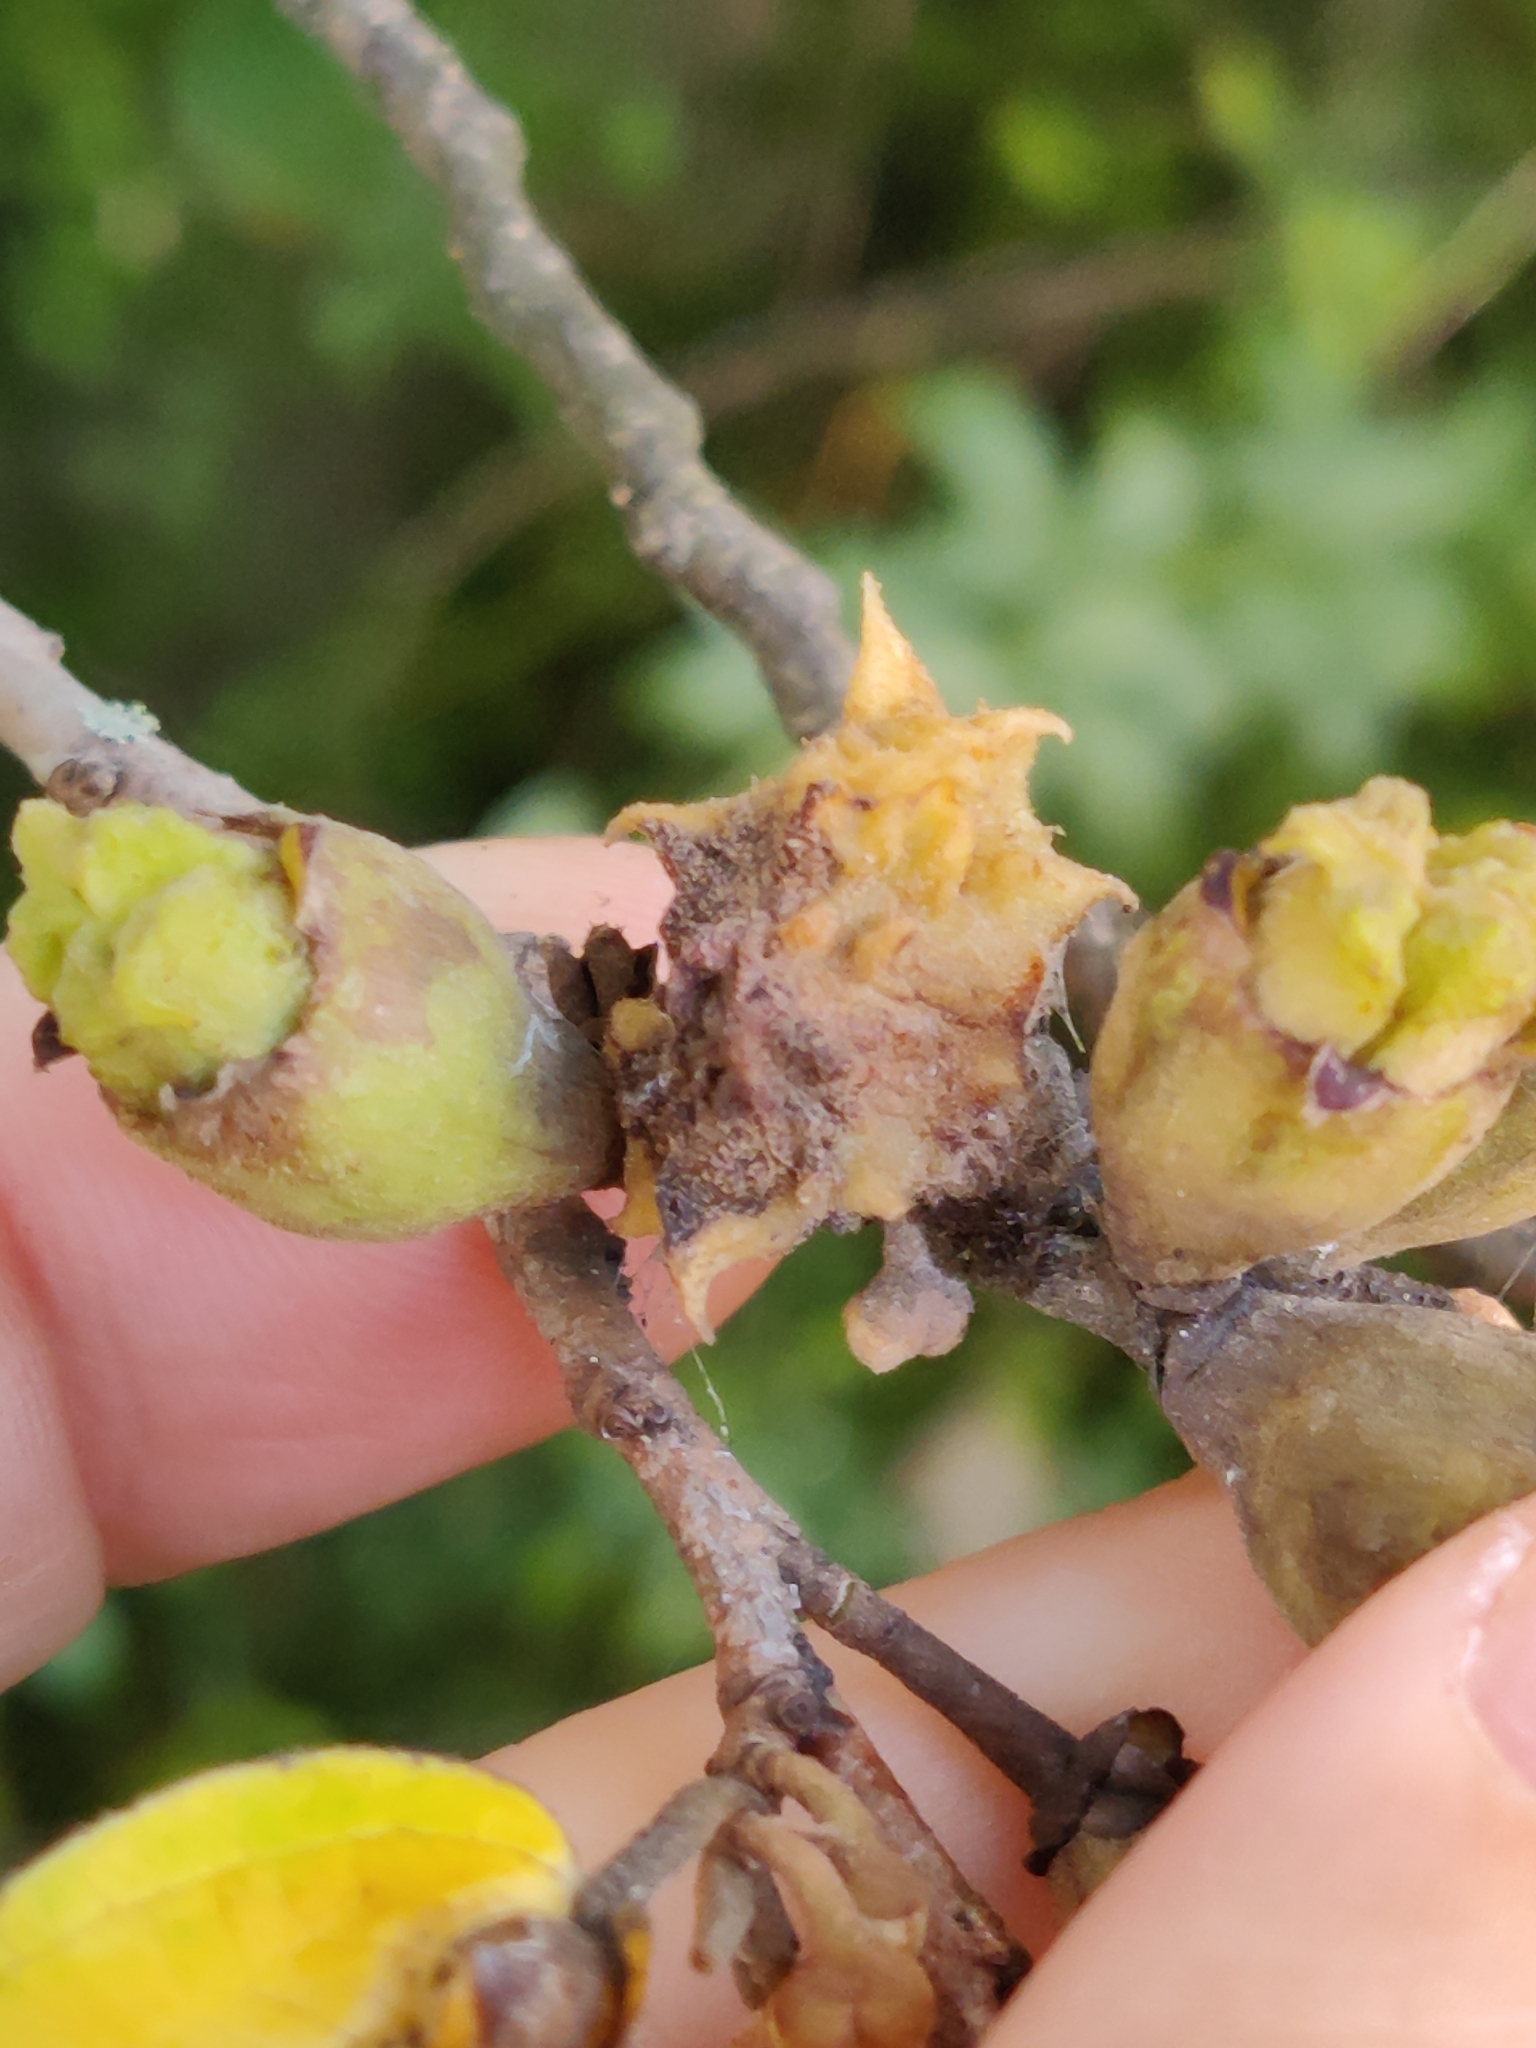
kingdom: Animalia
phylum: Arthropoda
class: Insecta
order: Hemiptera
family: Aphididae
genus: Hamamelistes
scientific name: Hamamelistes spinosus
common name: Witch hazel gall aphid
